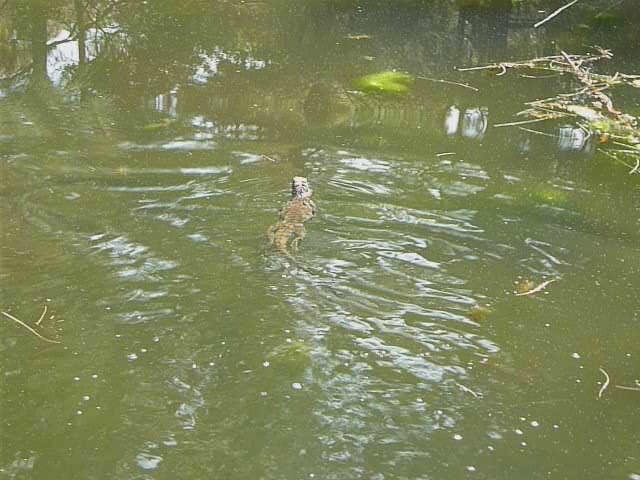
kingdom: Animalia
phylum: Chordata
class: Squamata
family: Agamidae
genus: Intellagama
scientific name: Intellagama lesueurii
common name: Eastern water dragon
